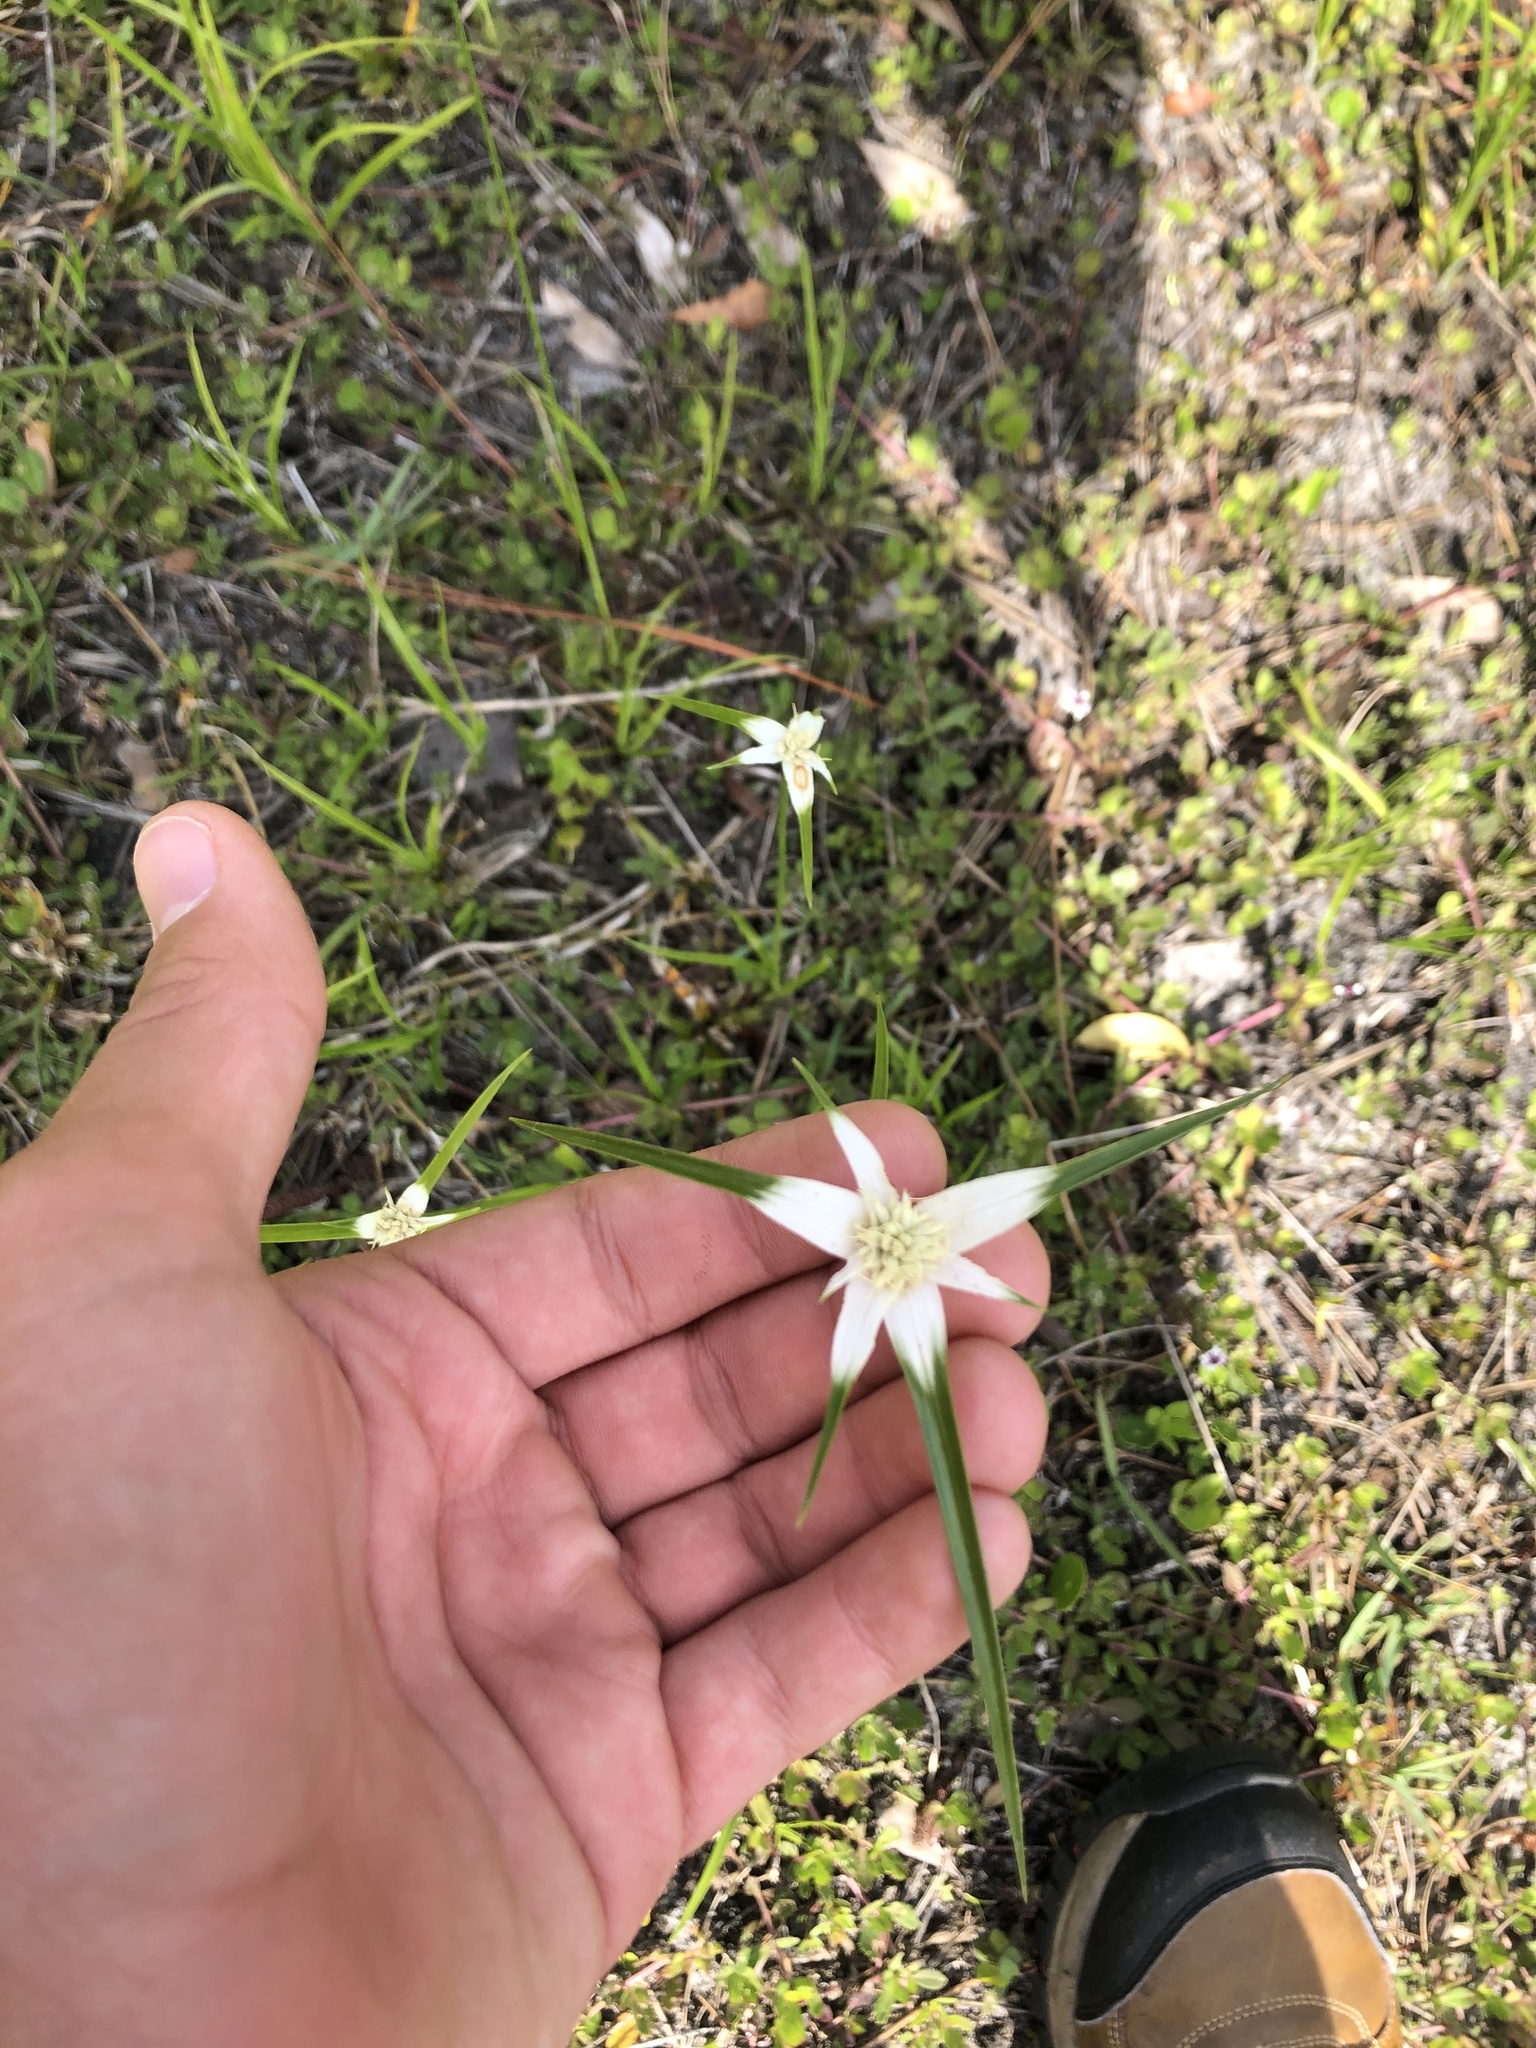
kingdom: Plantae
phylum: Tracheophyta
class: Liliopsida
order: Poales
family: Cyperaceae
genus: Rhynchospora
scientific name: Rhynchospora colorata
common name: Star sedge
